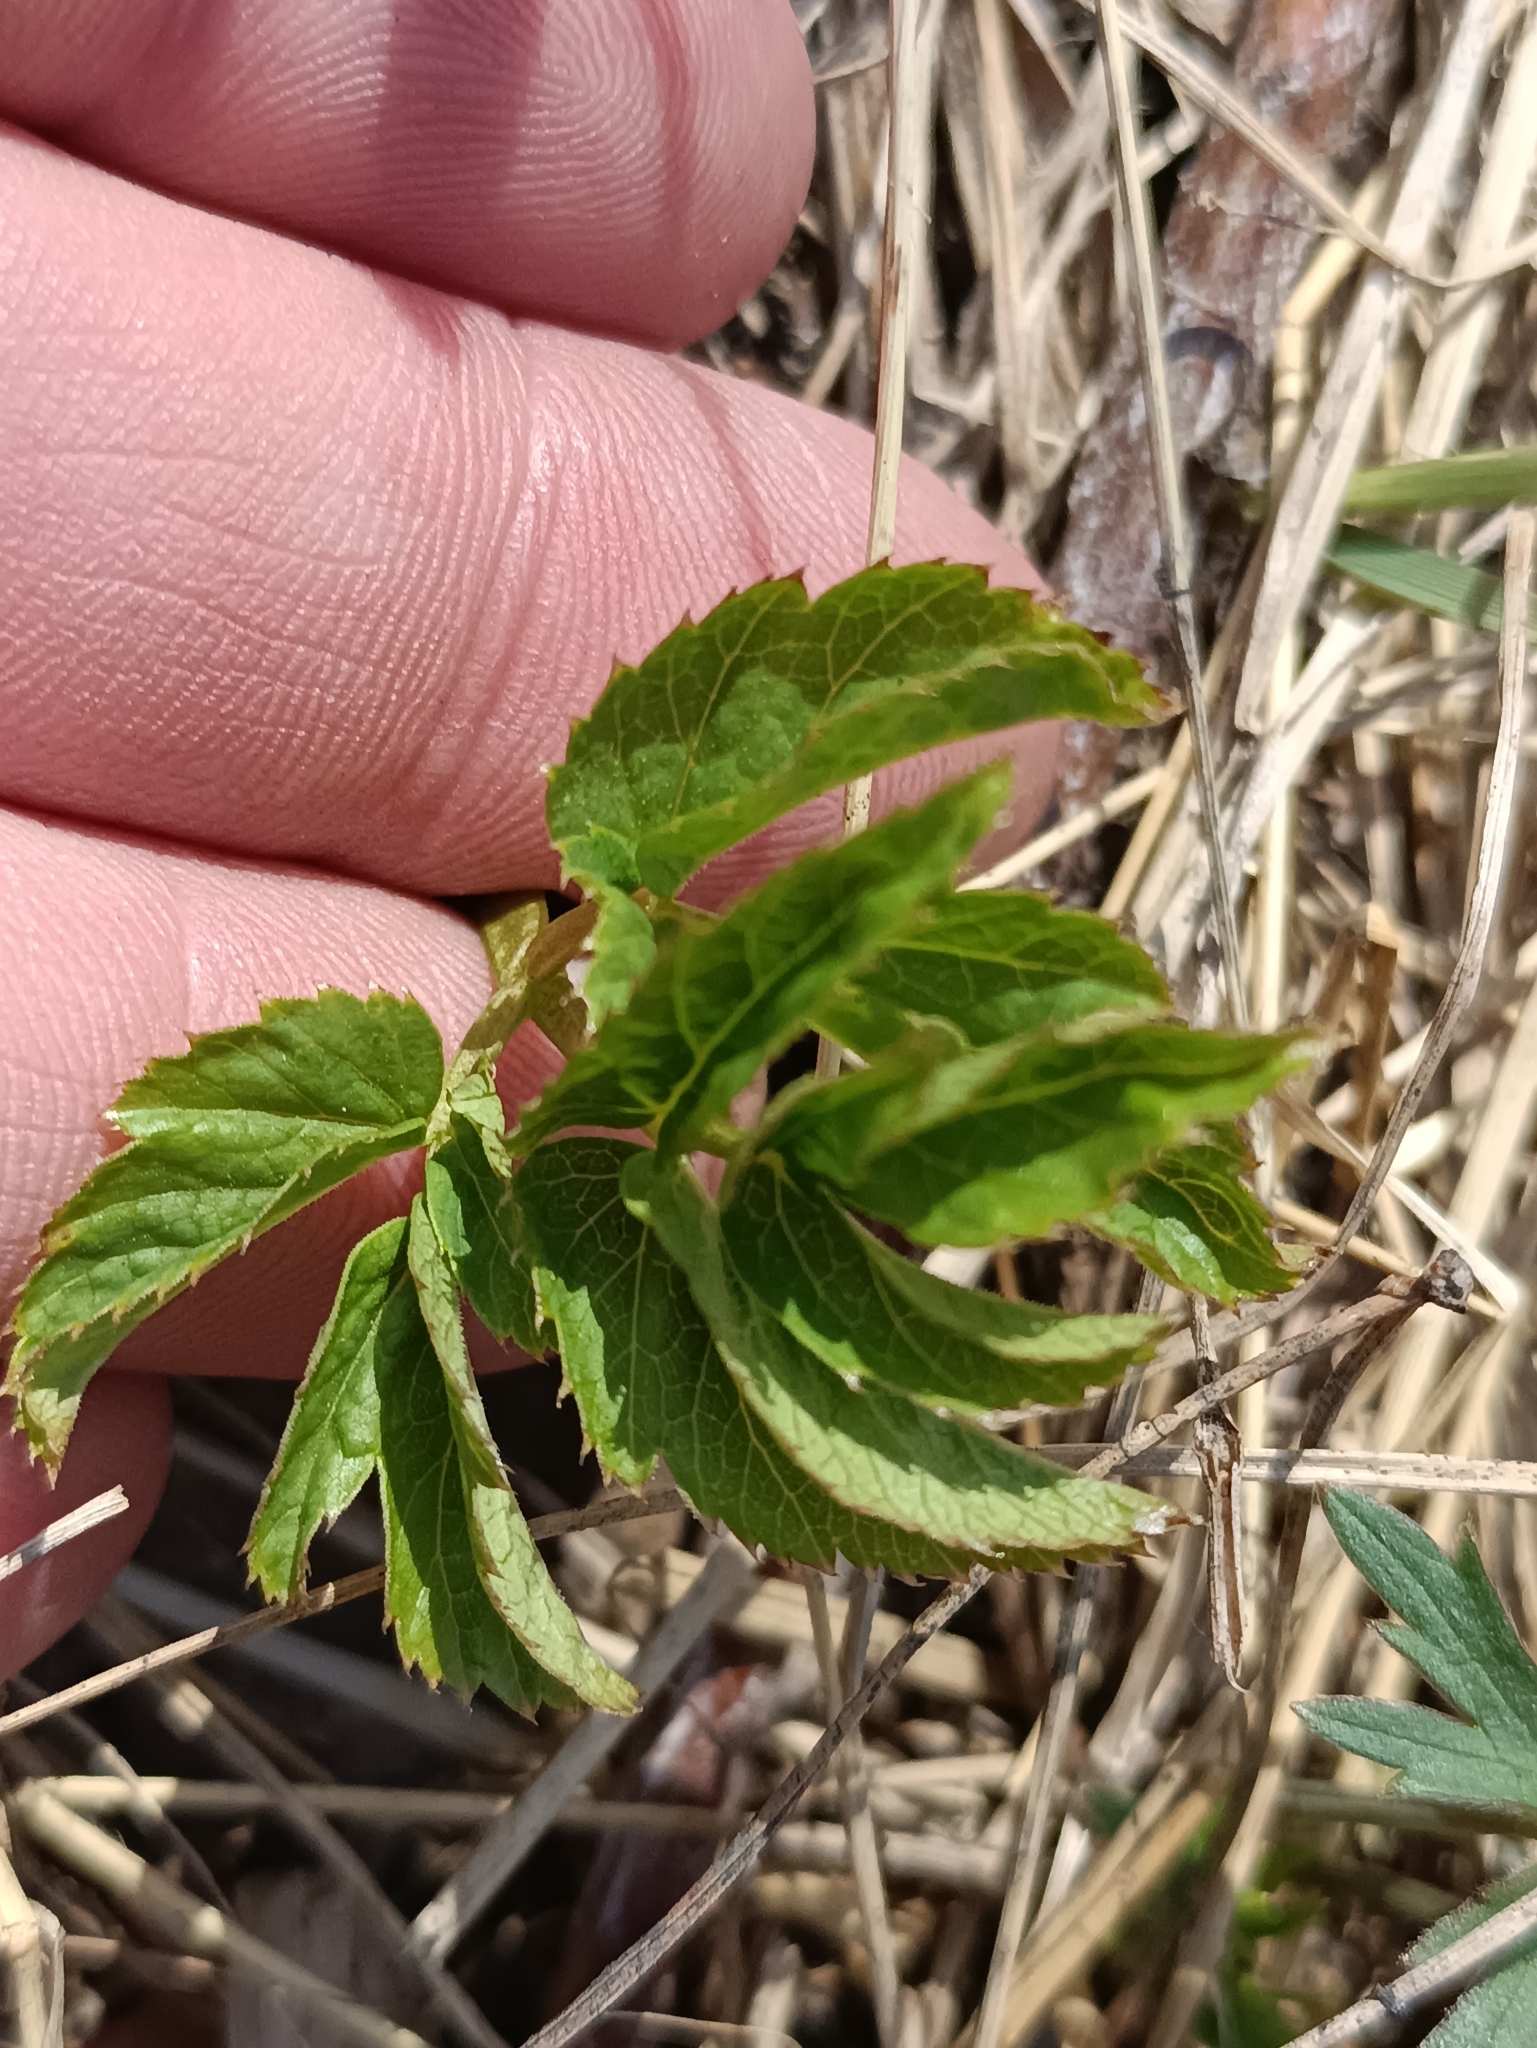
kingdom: Plantae
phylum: Tracheophyta
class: Magnoliopsida
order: Apiales
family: Apiaceae
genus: Aegopodium
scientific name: Aegopodium podagraria
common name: Ground-elder
